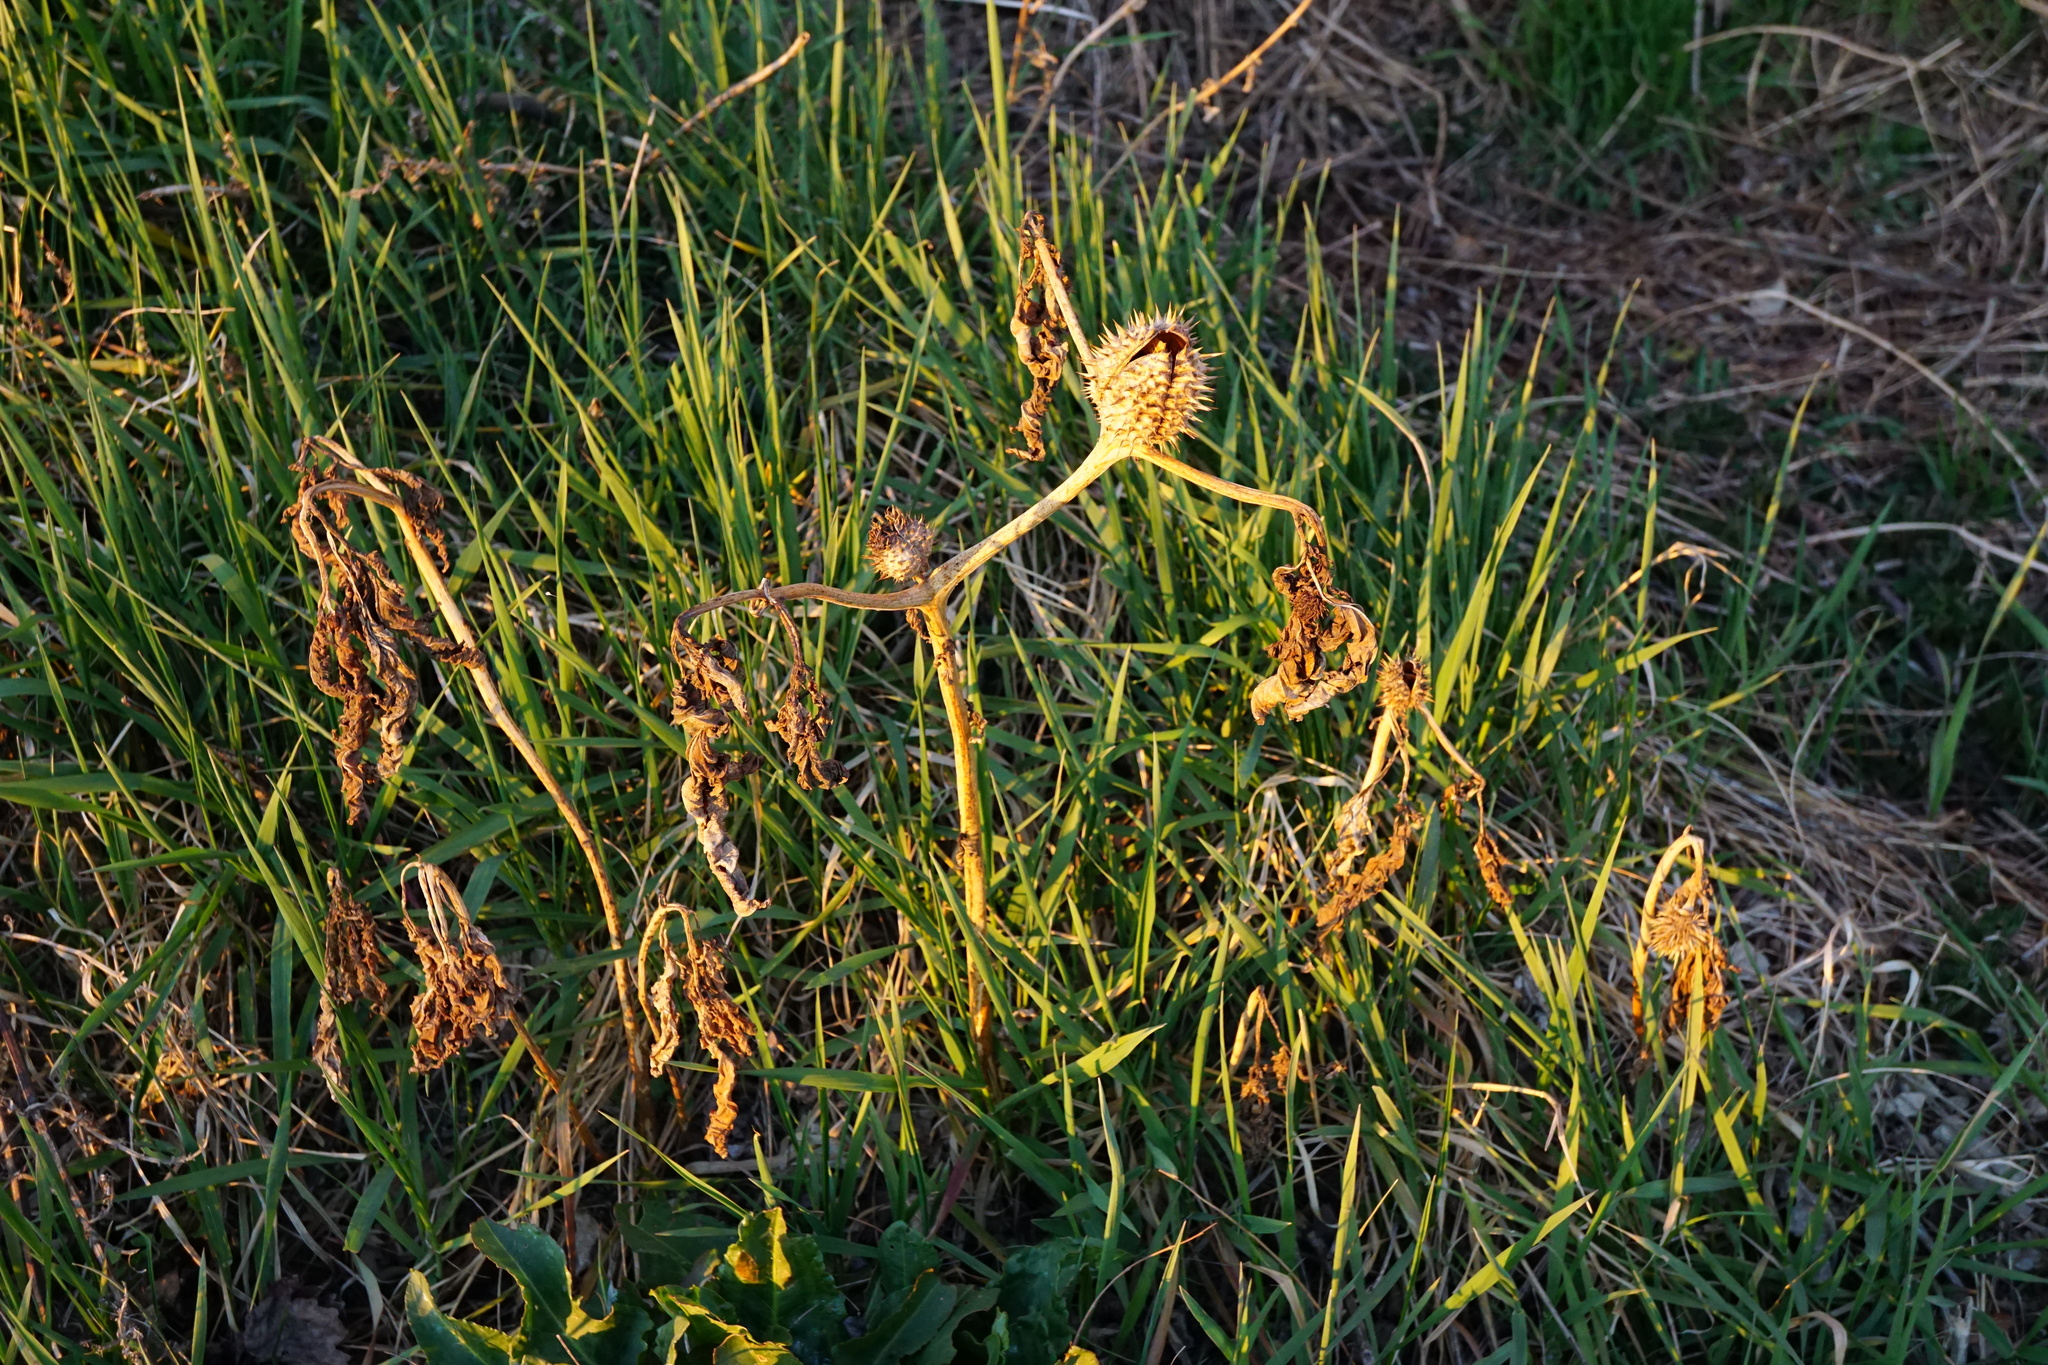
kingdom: Plantae
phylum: Tracheophyta
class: Magnoliopsida
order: Solanales
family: Solanaceae
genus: Datura
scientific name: Datura stramonium
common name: Thorn-apple
